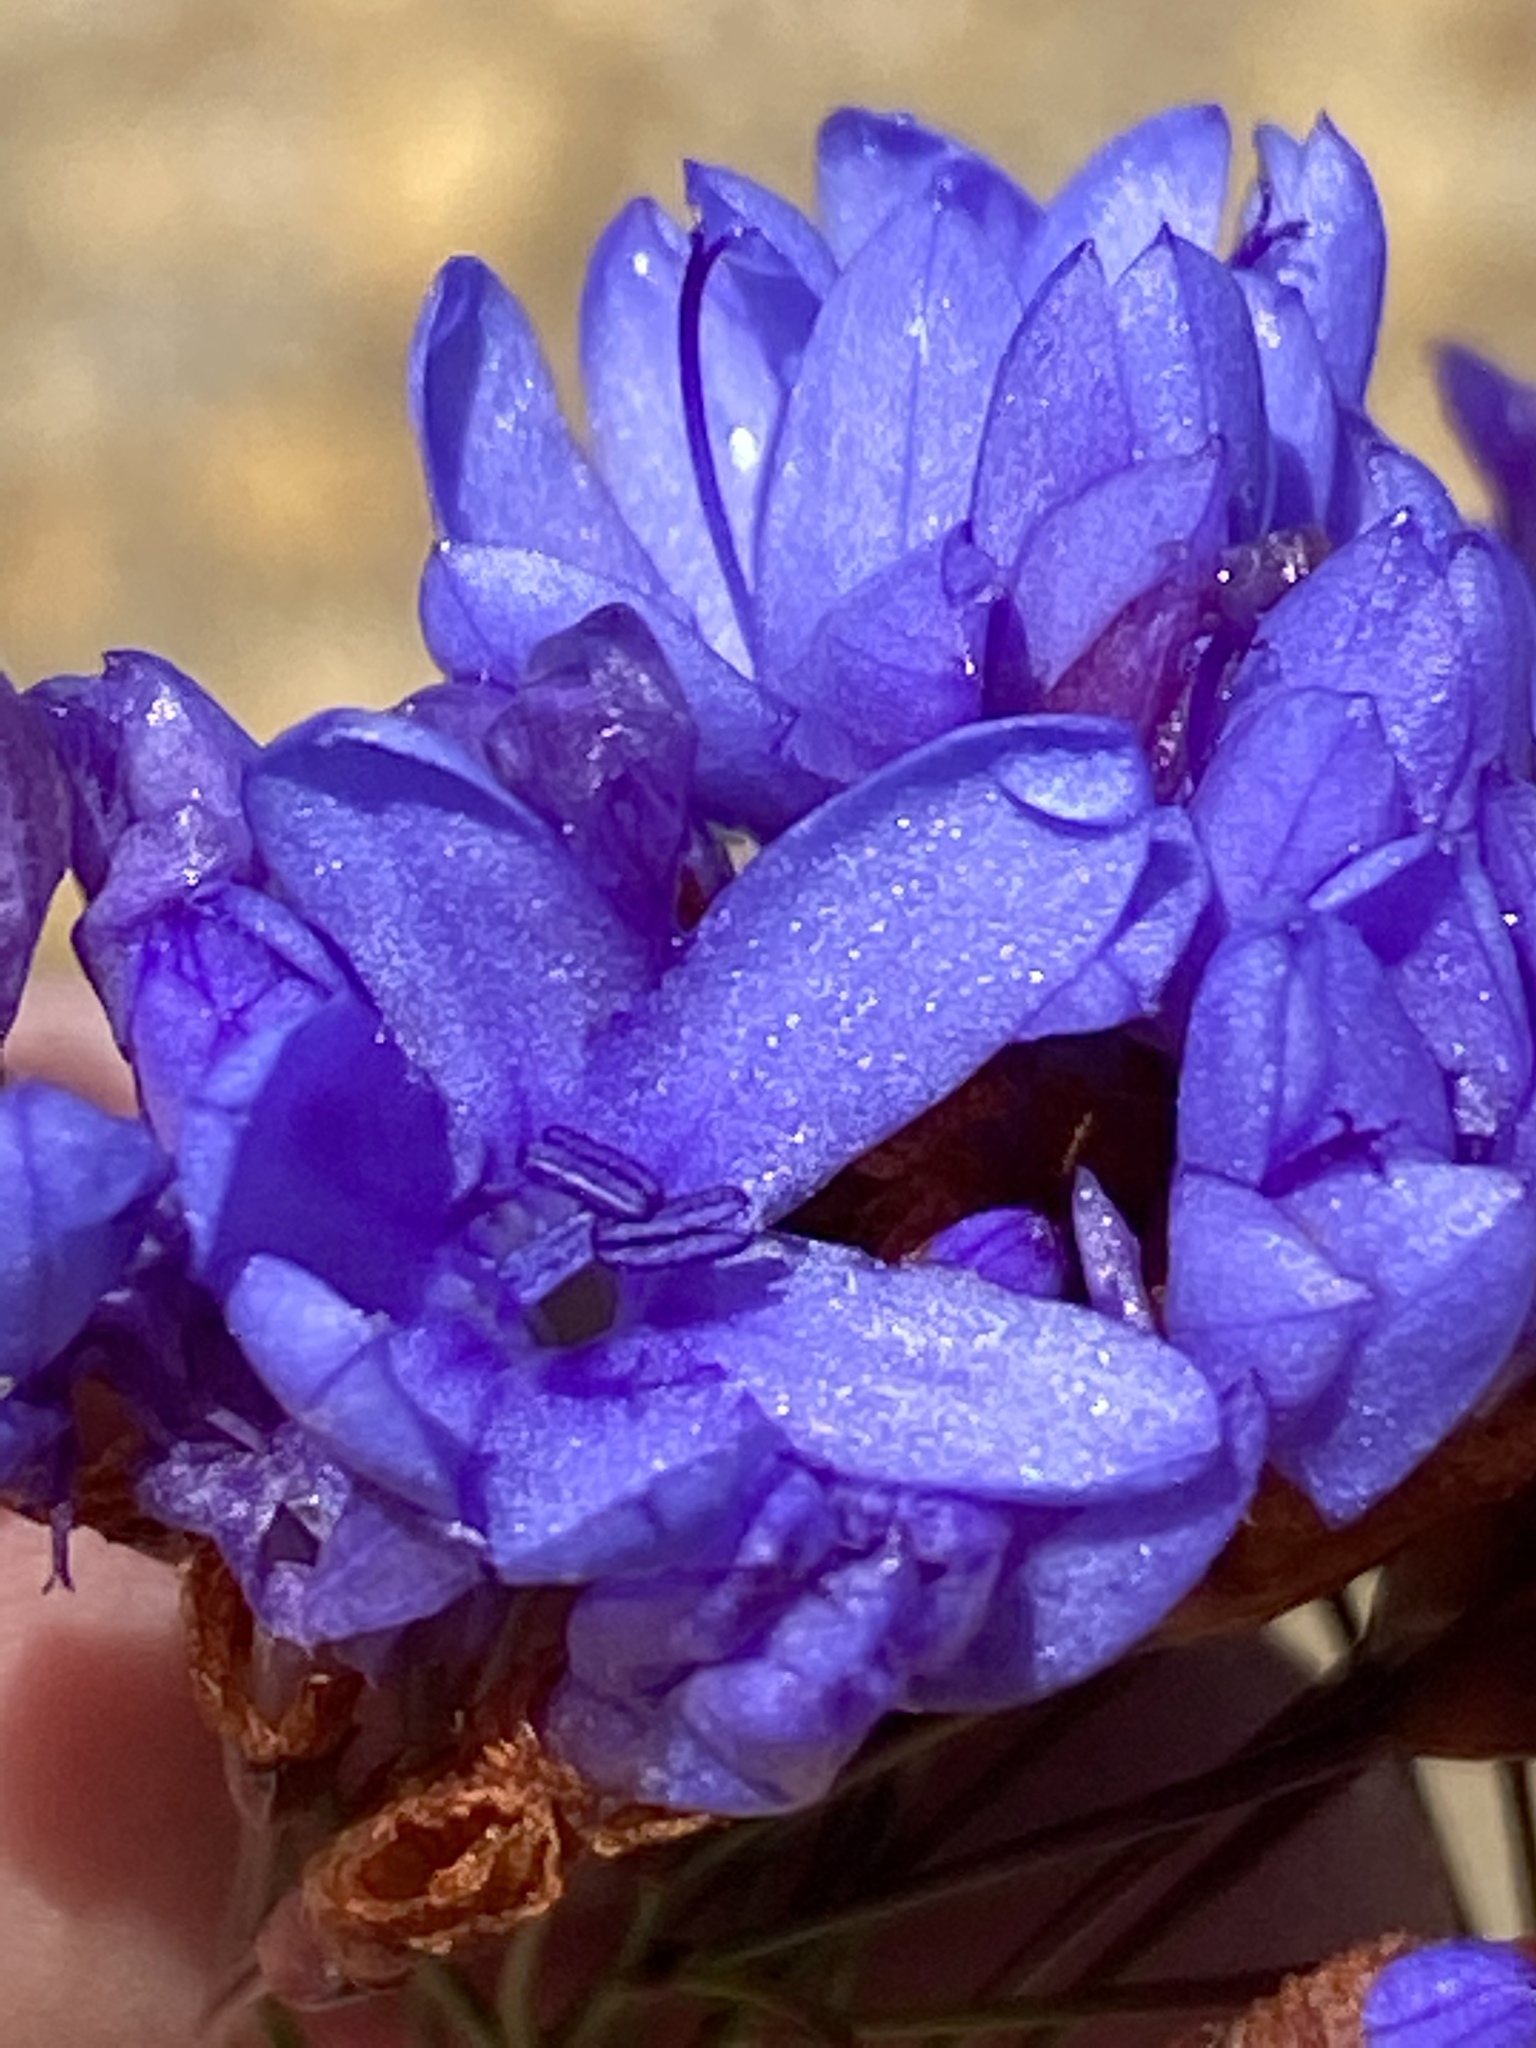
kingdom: Plantae
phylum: Tracheophyta
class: Liliopsida
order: Asparagales
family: Iridaceae
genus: Nivenia
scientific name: Nivenia binata
